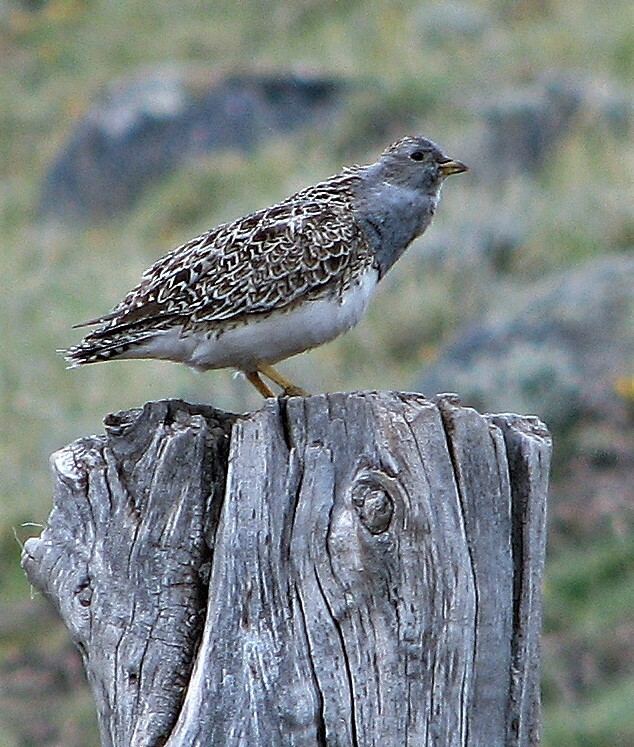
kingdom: Animalia
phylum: Chordata
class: Aves
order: Charadriiformes
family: Thinocoridae
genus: Thinocorus
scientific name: Thinocorus orbignyianus
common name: Grey-breasted seedsnipe
